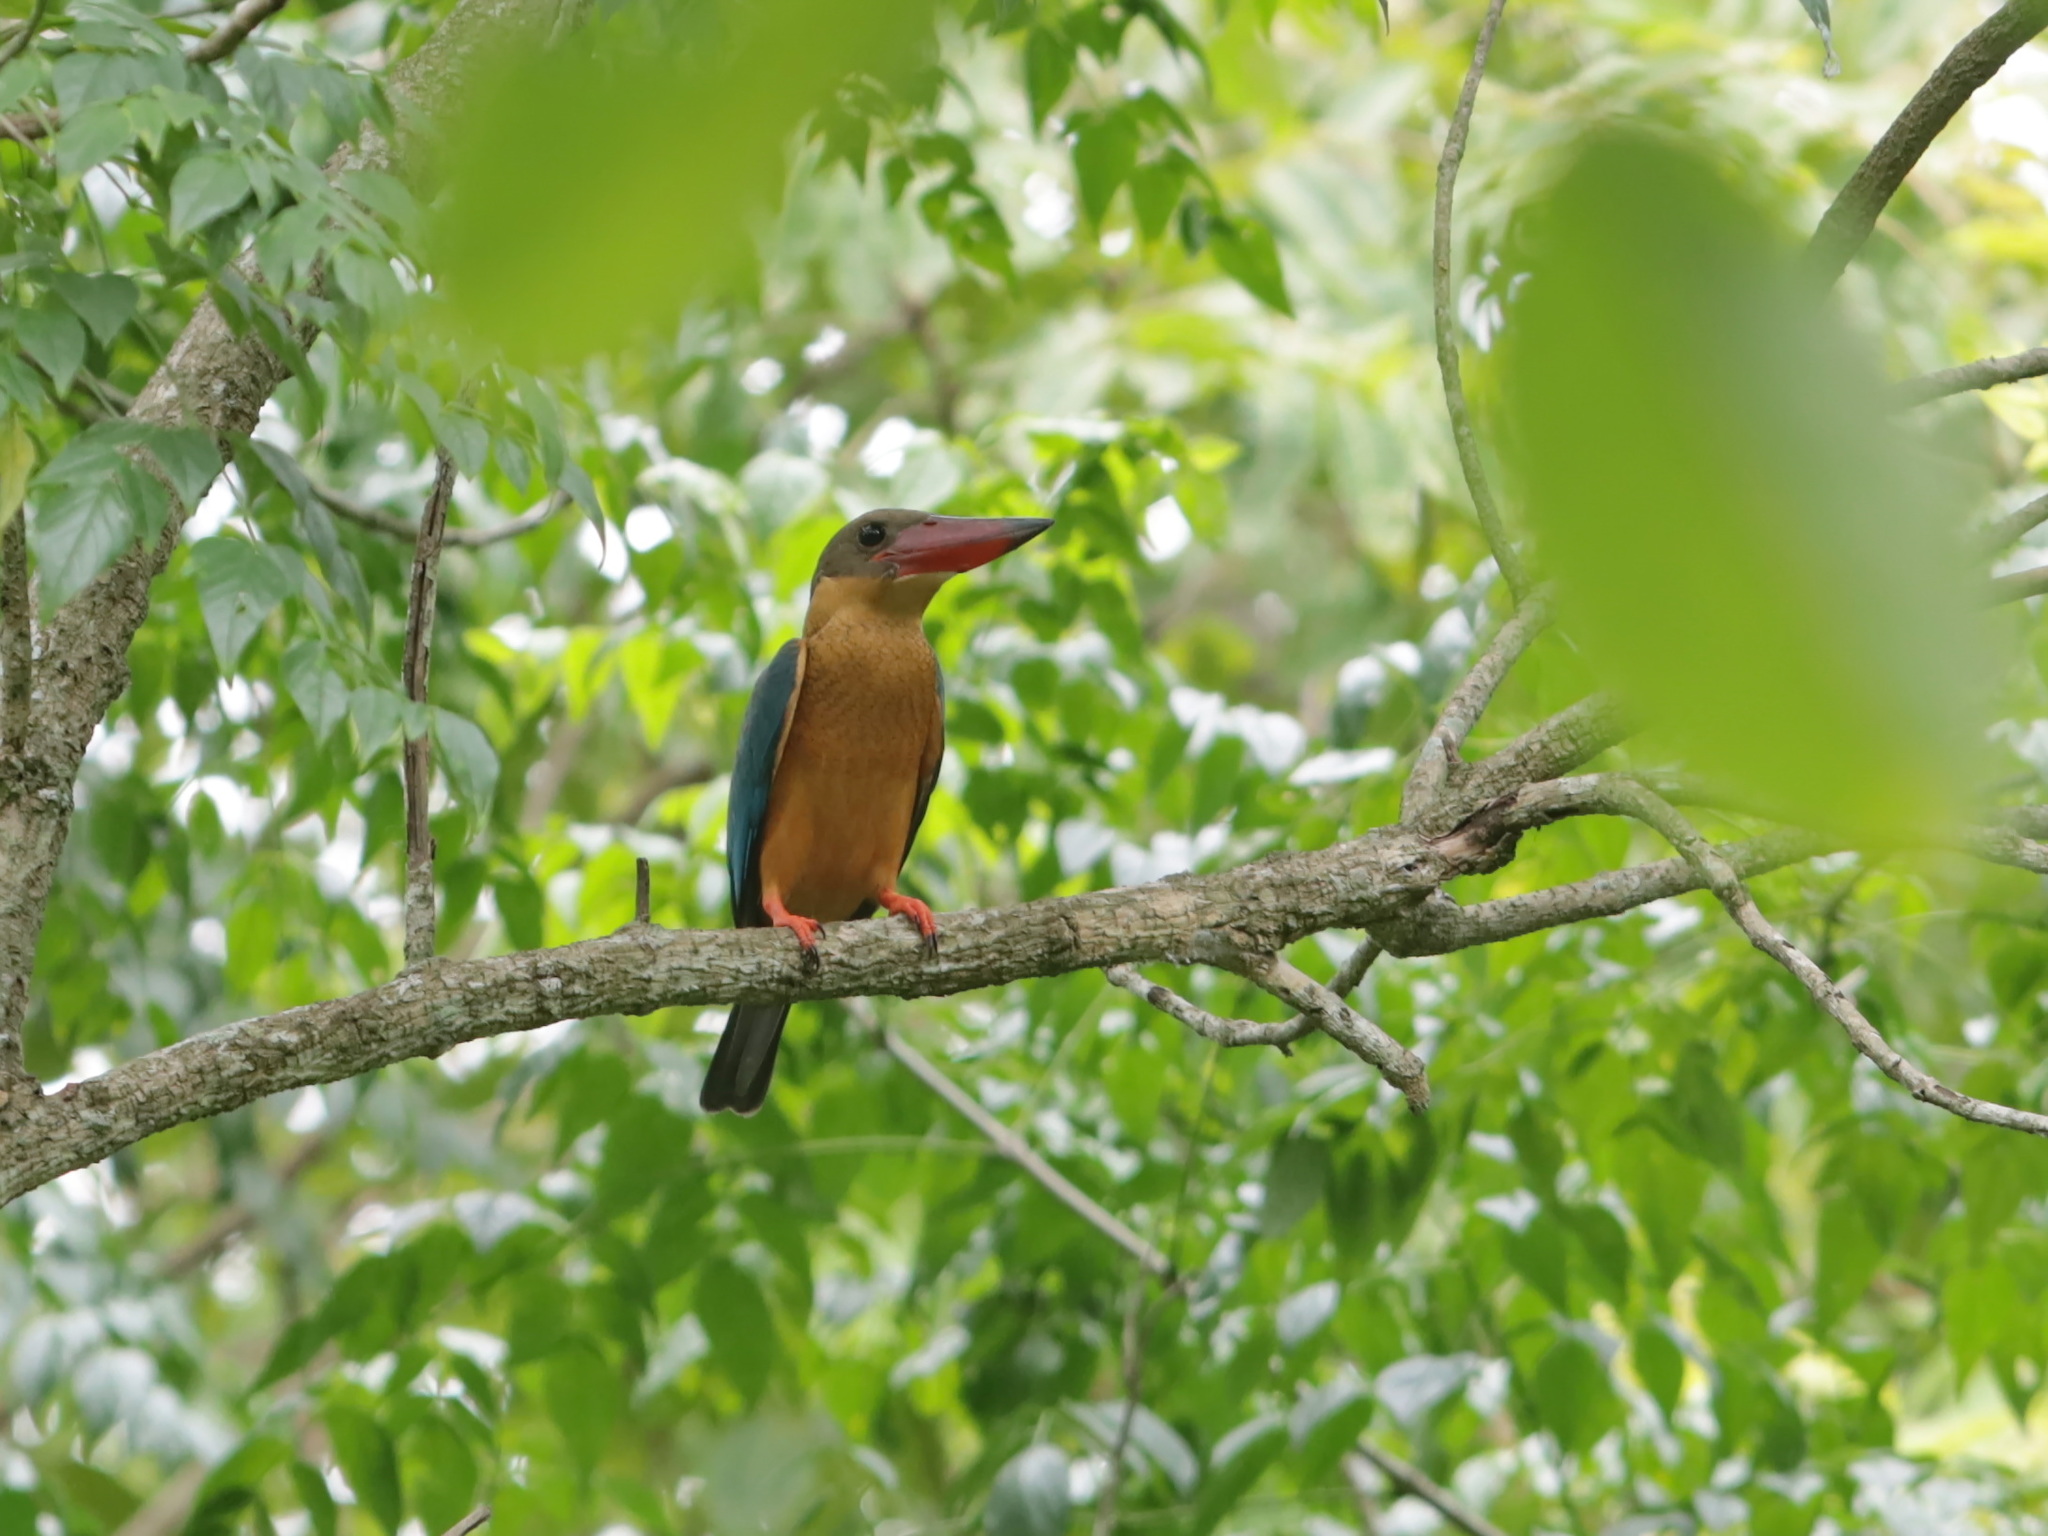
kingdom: Animalia
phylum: Chordata
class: Aves
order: Coraciiformes
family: Alcedinidae
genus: Pelargopsis
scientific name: Pelargopsis capensis
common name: Stork-billed kingfisher
